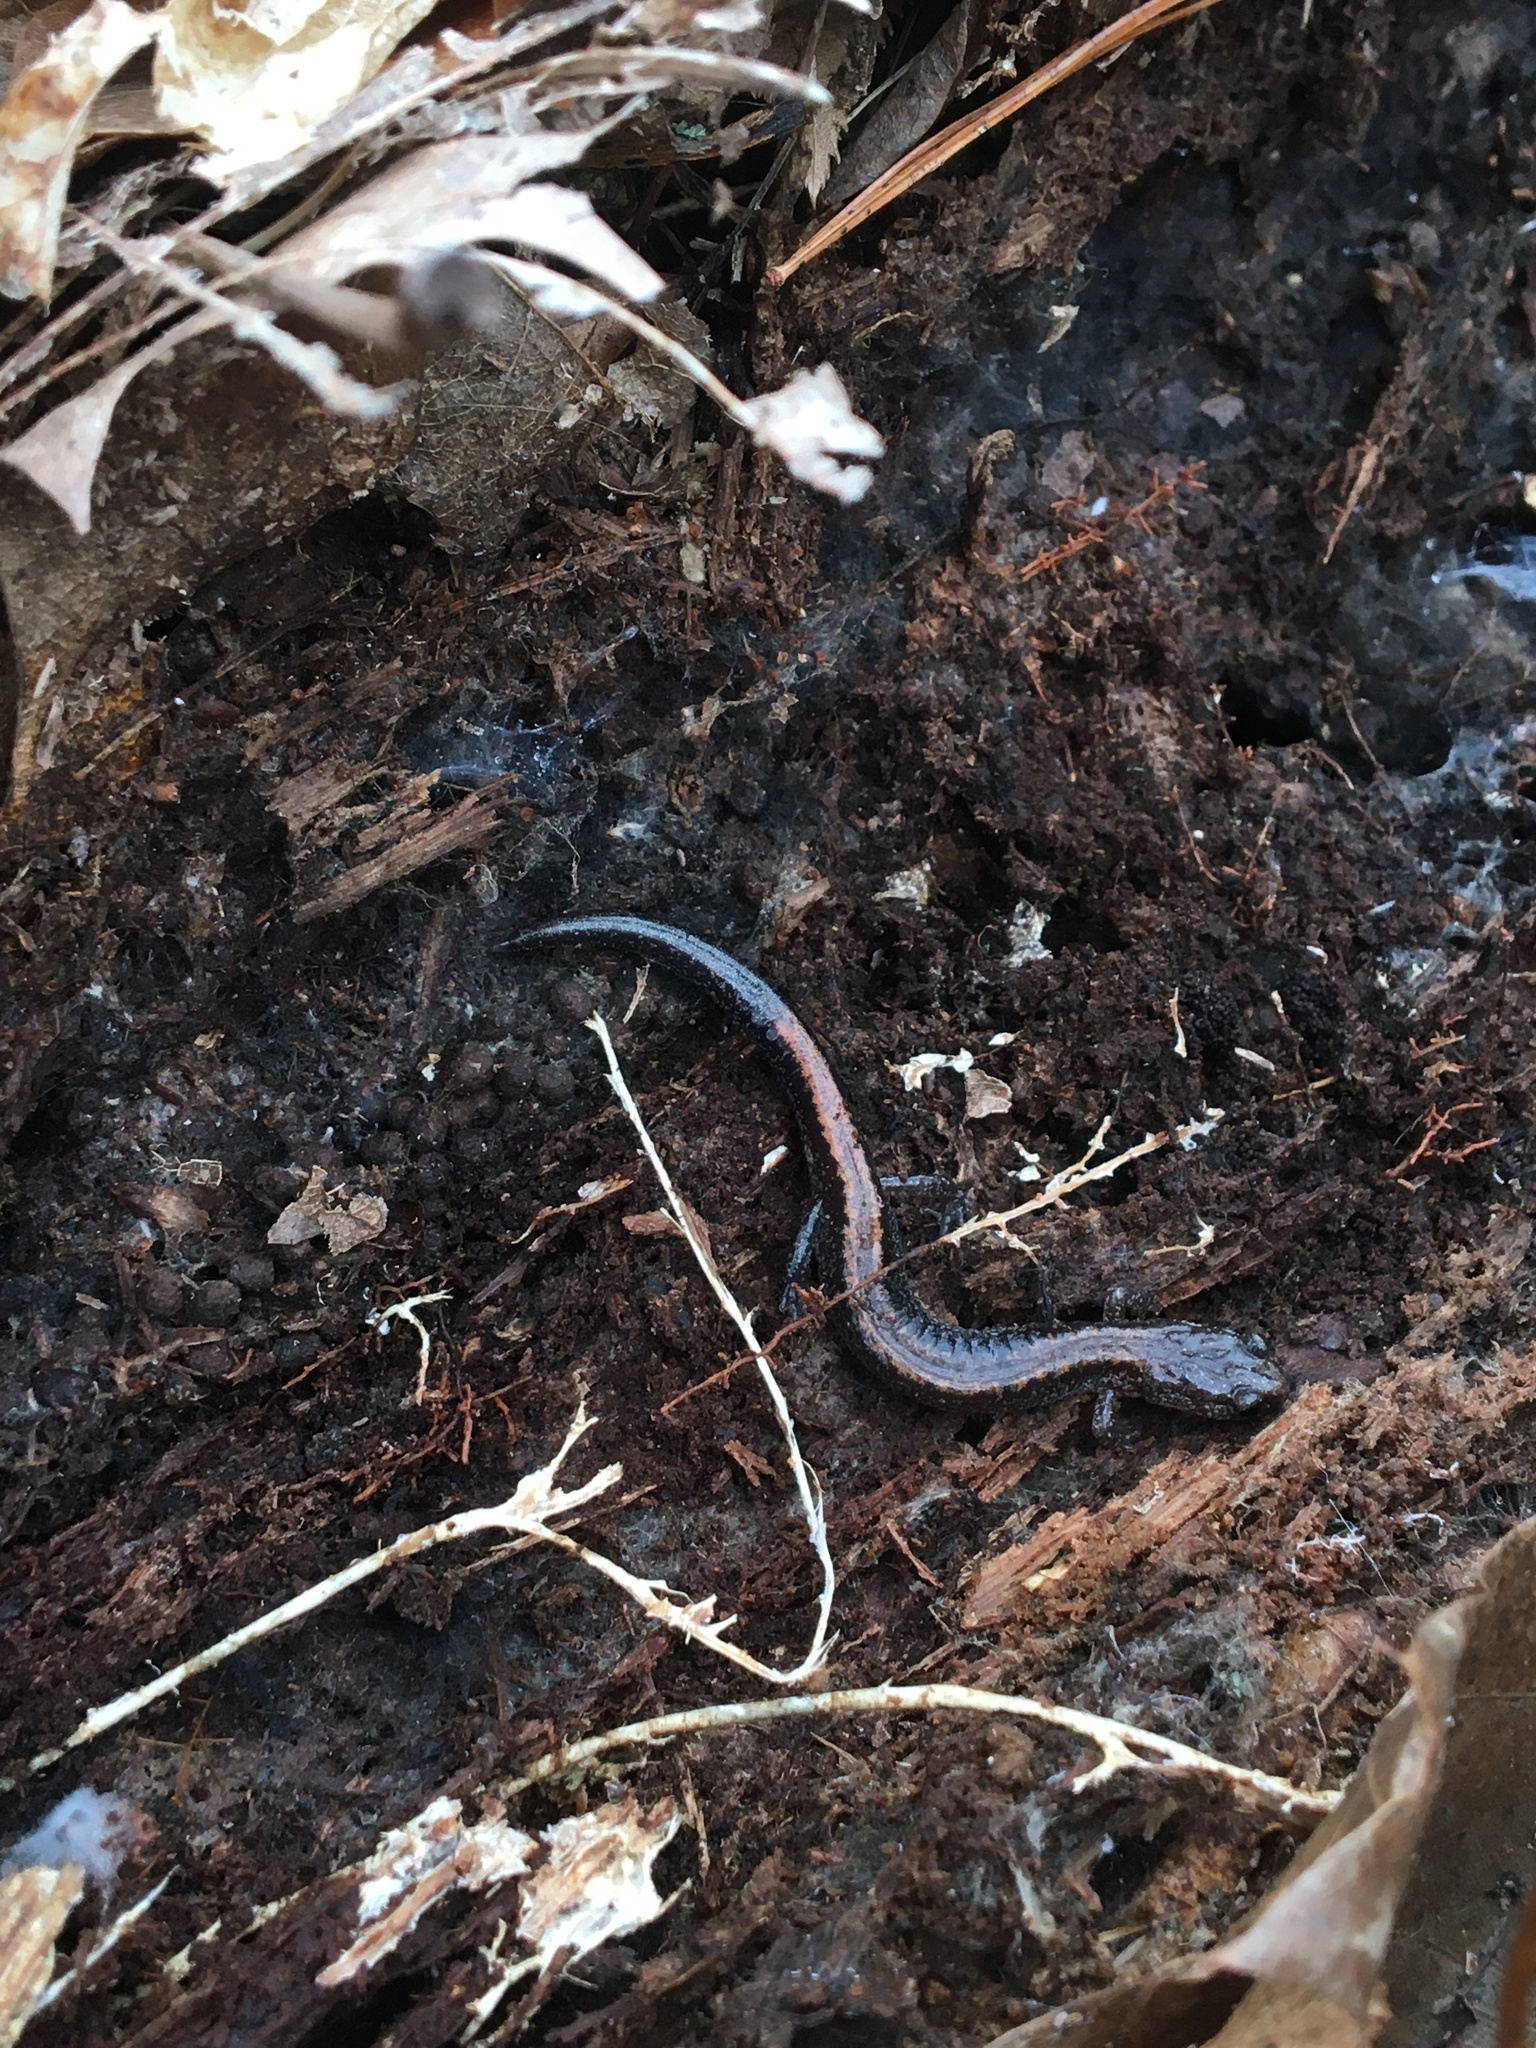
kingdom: Animalia
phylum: Chordata
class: Amphibia
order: Caudata
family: Plethodontidae
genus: Plethodon
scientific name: Plethodon cinereus
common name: Redback salamander
